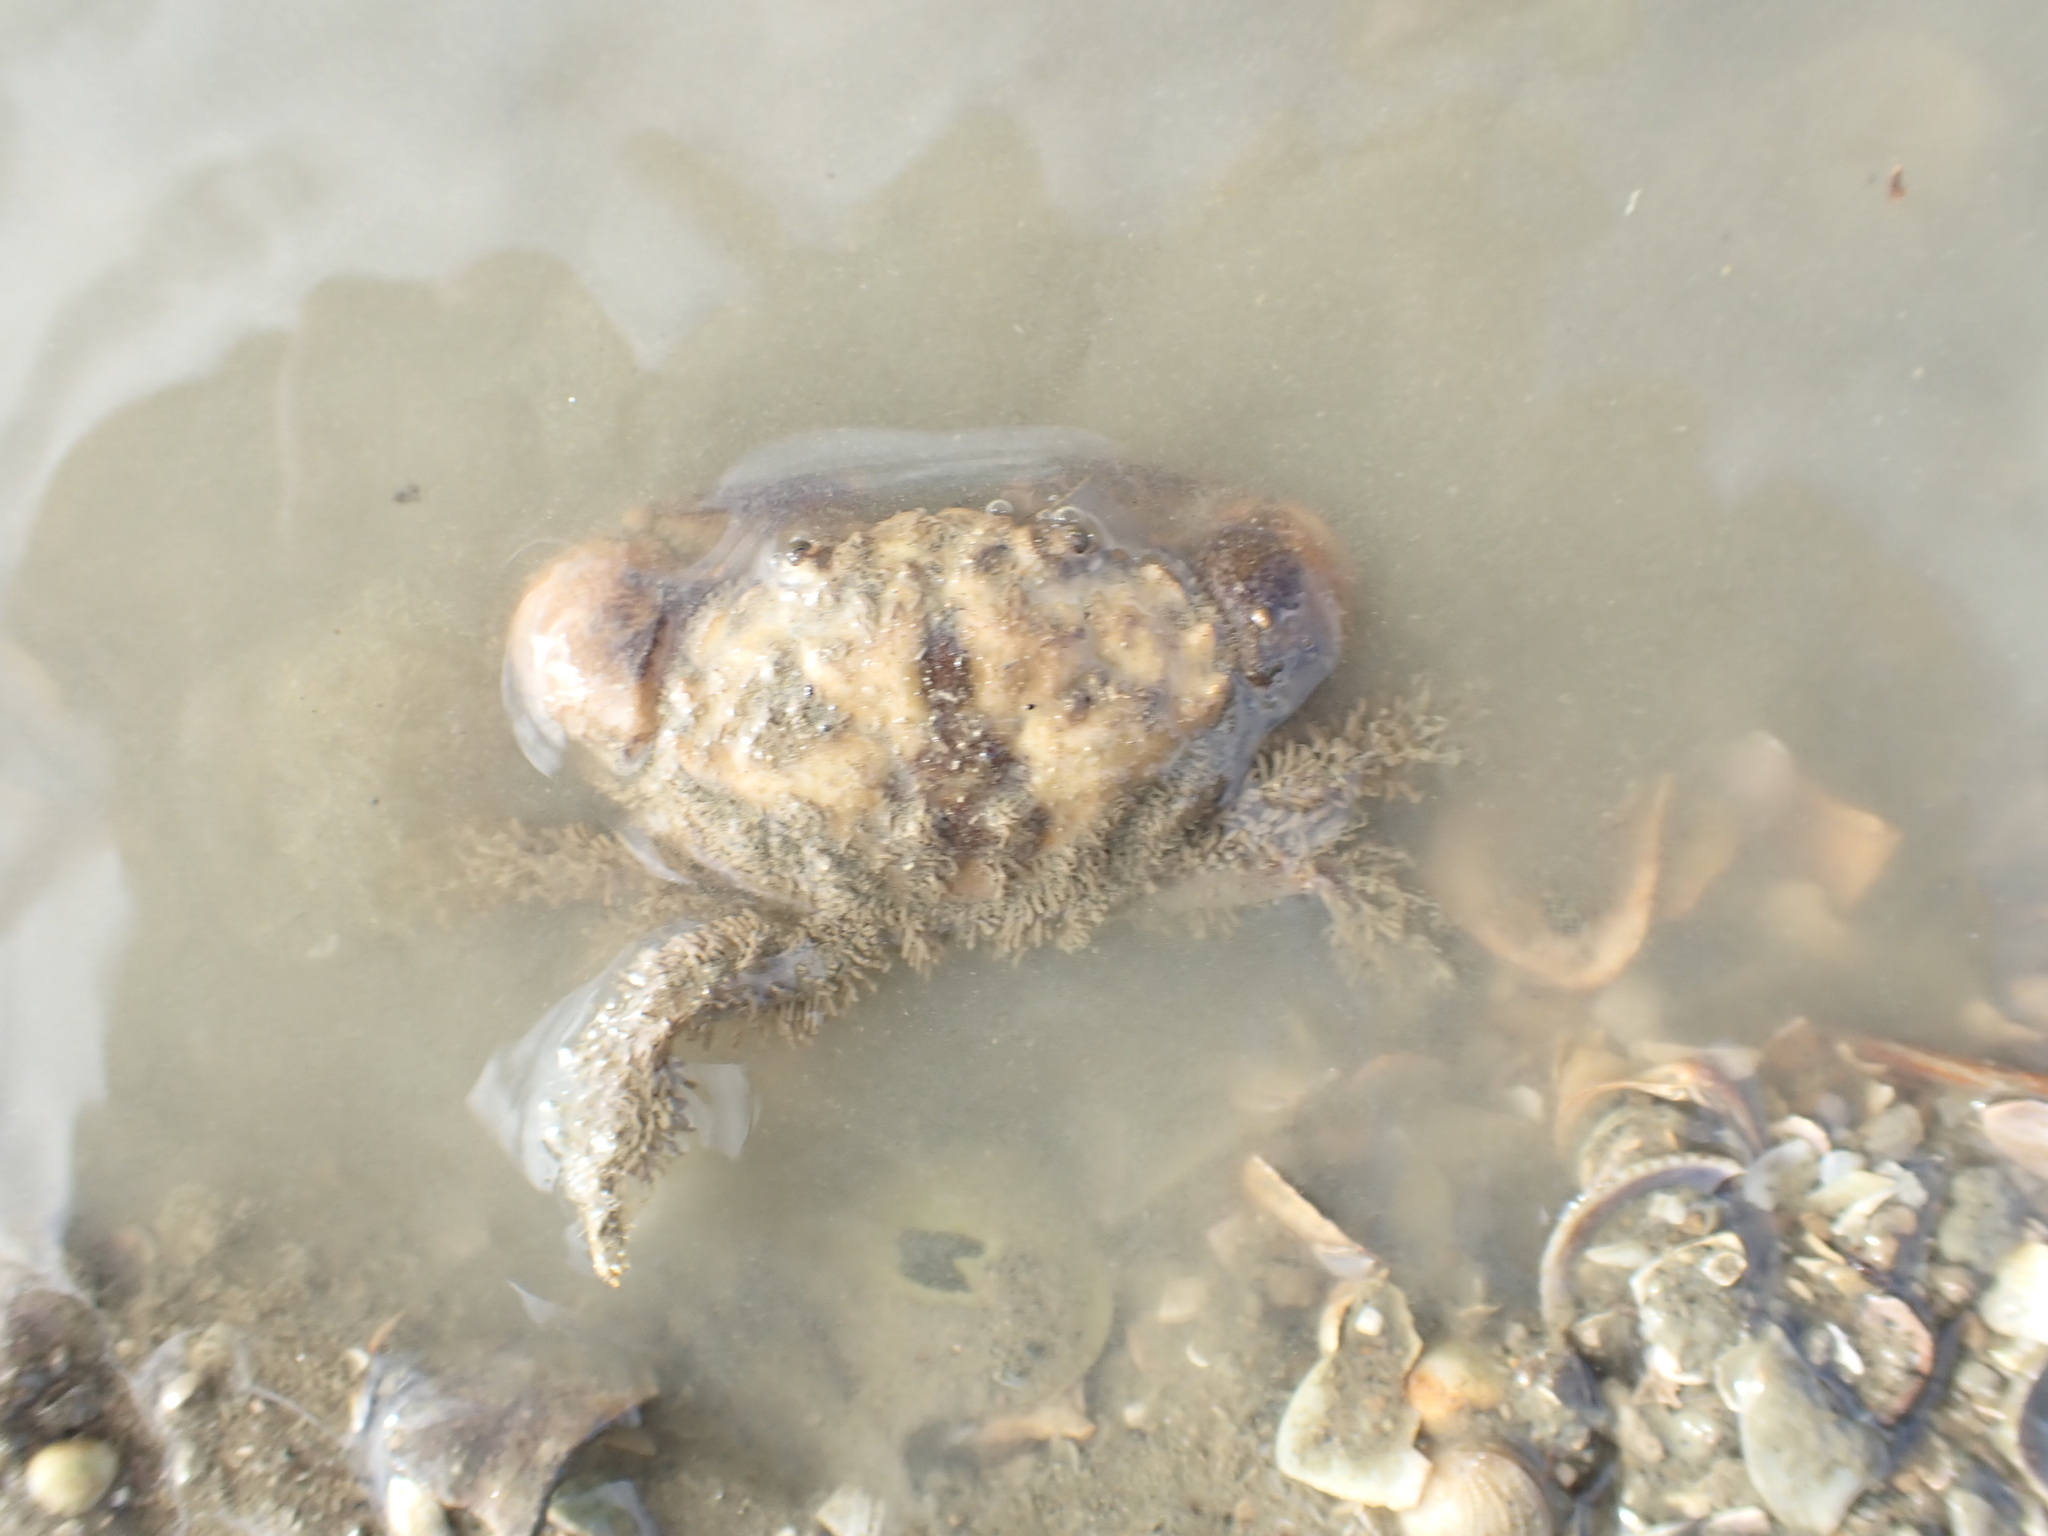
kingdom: Animalia
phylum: Arthropoda
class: Malacostraca
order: Decapoda
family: Pilumnidae
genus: Pilumnopeus
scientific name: Pilumnopeus serratifrons
